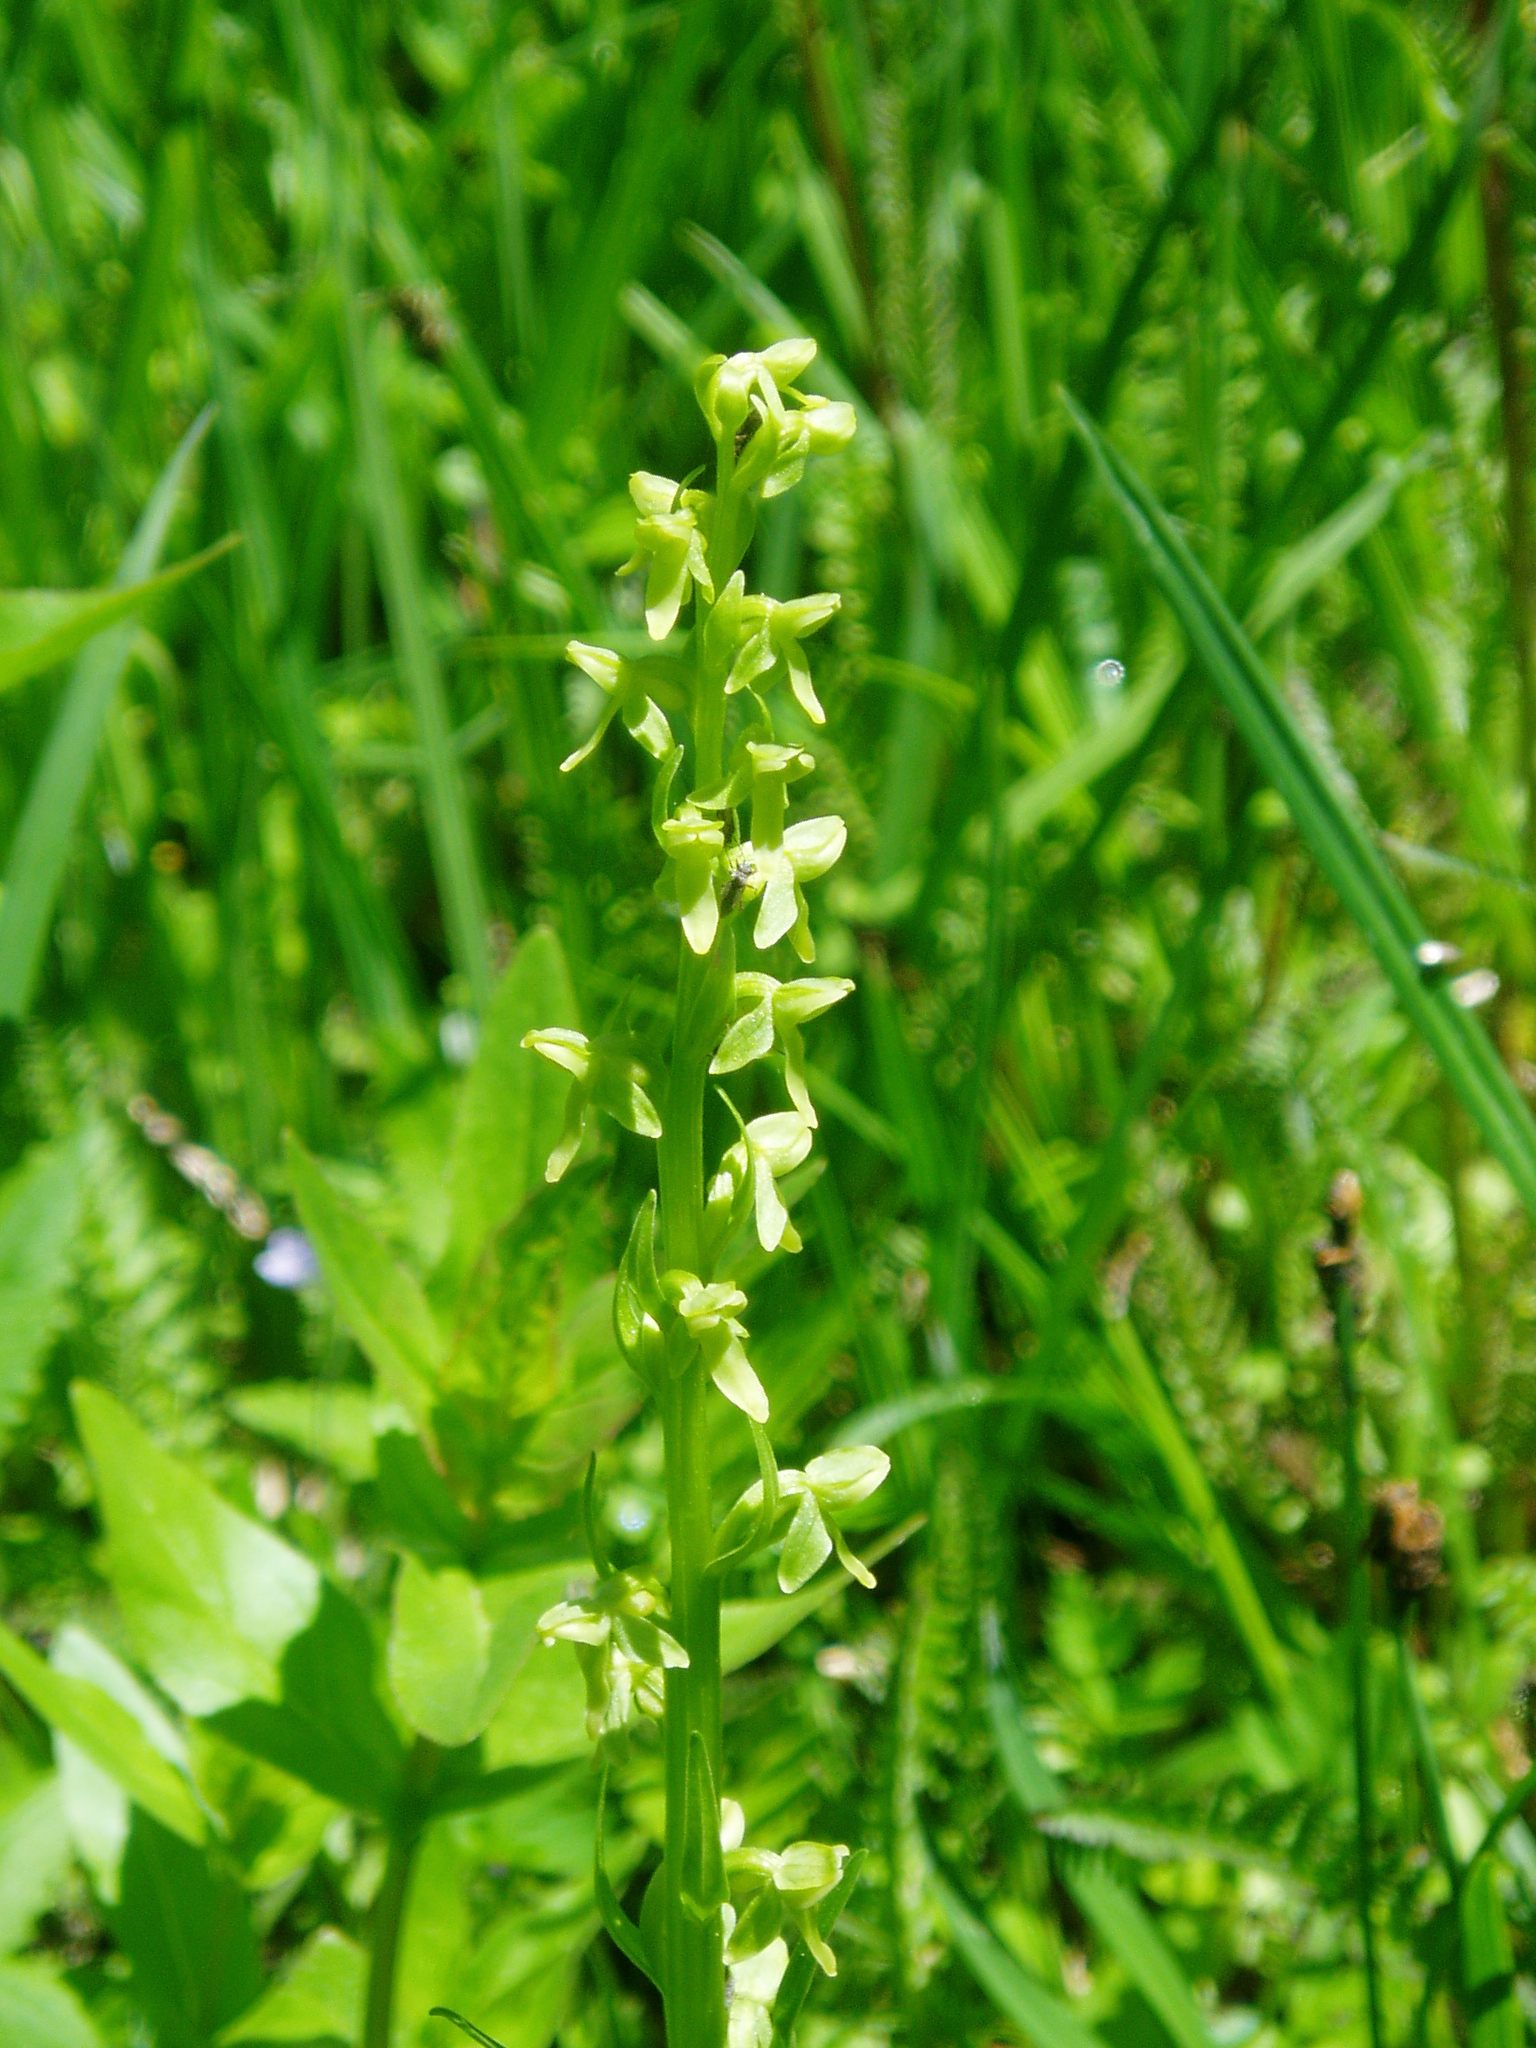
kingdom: Plantae
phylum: Tracheophyta
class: Liliopsida
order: Asparagales
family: Orchidaceae
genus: Platanthera
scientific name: Platanthera stricta
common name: Slender bog orchid
